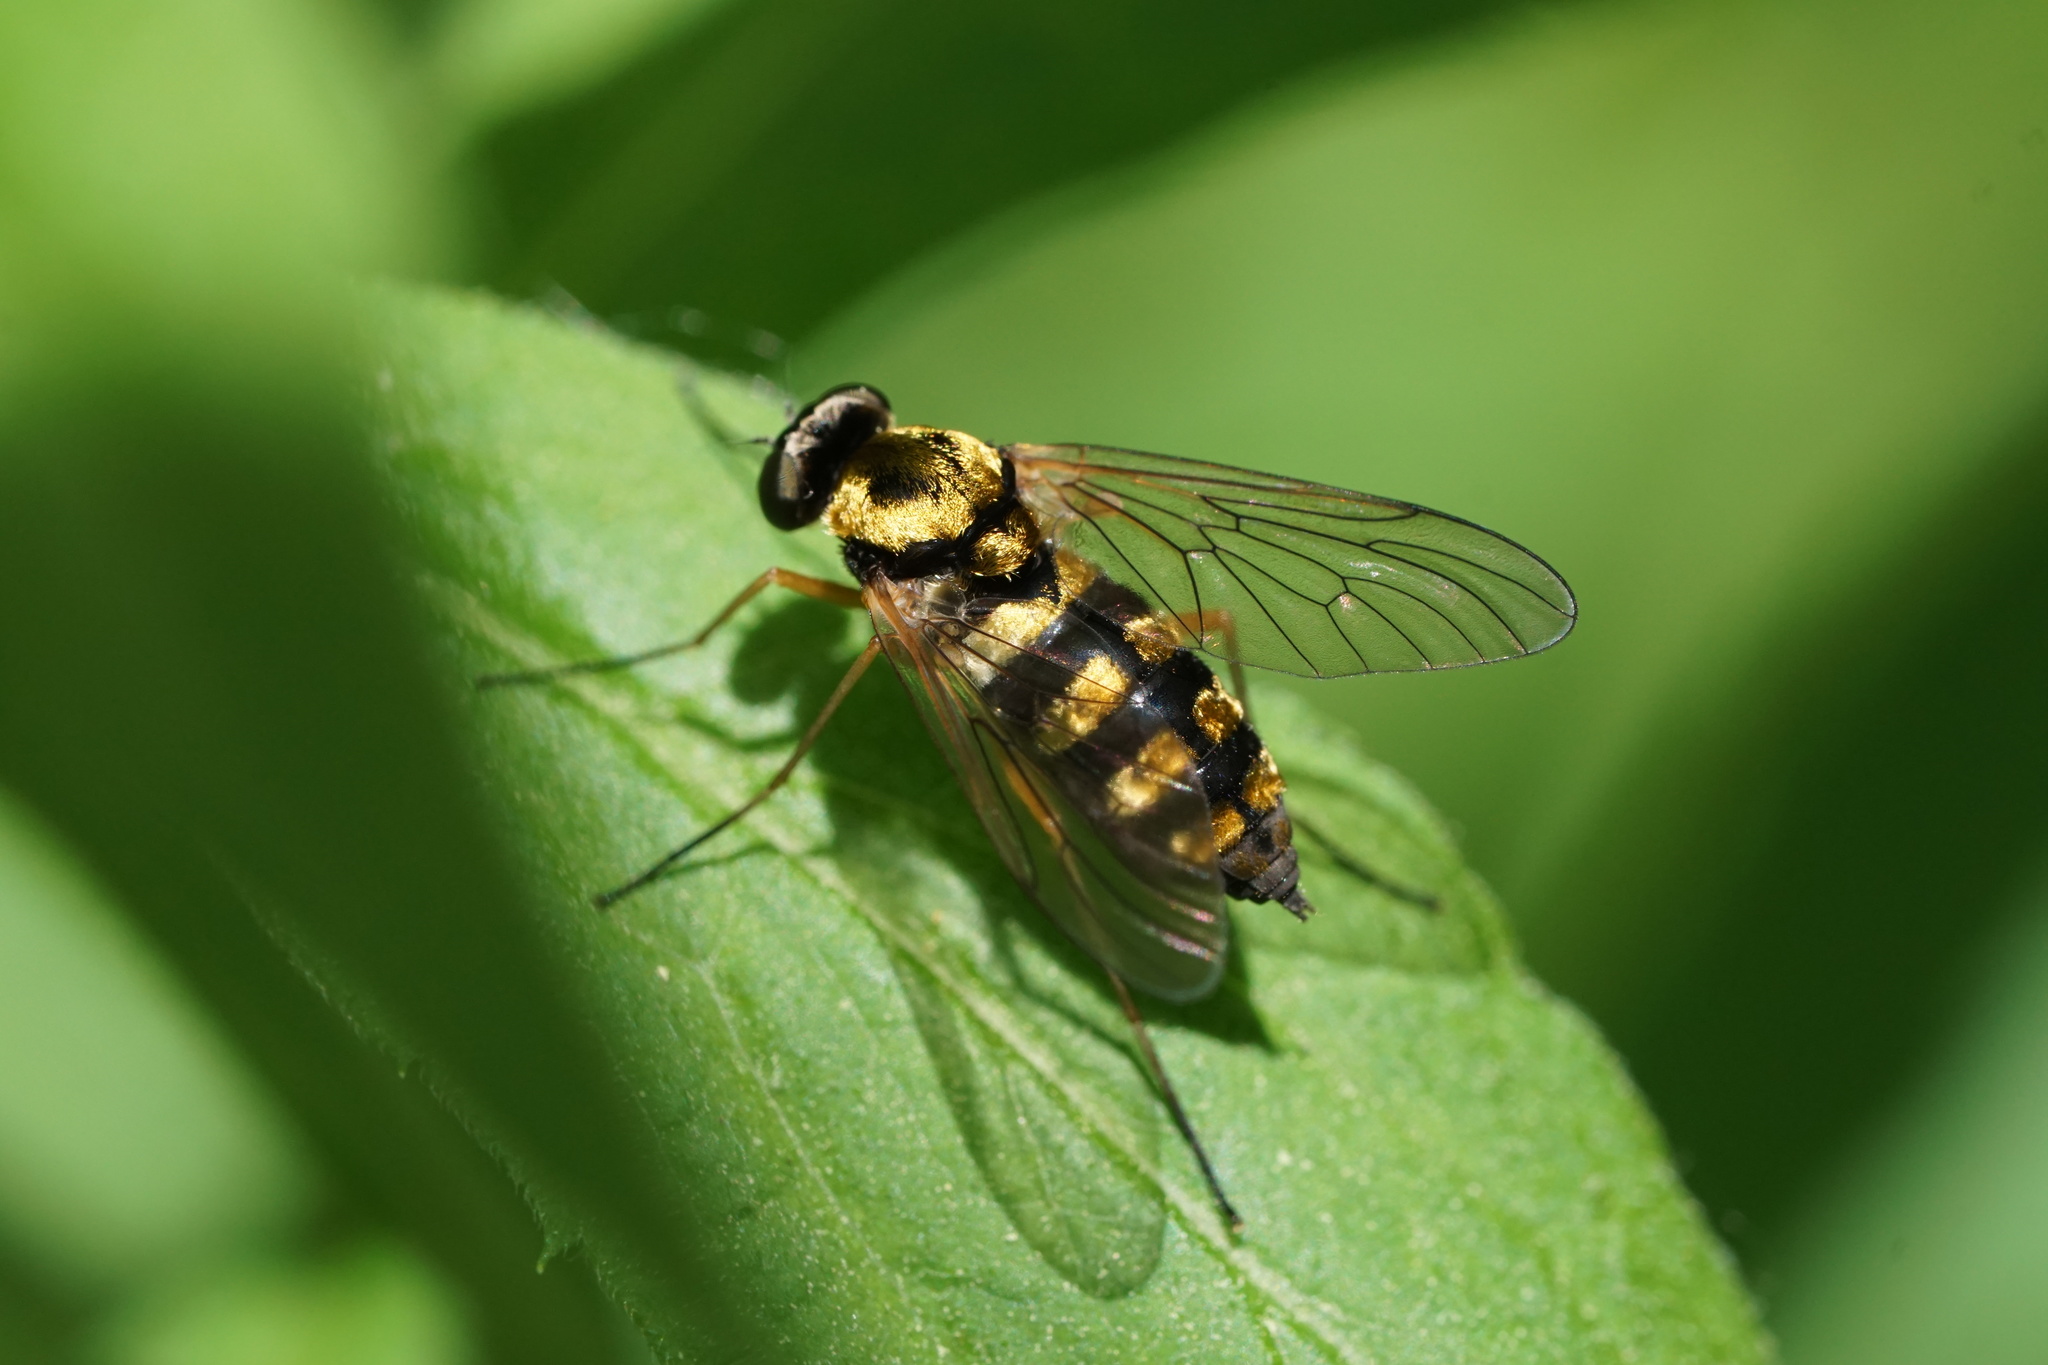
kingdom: Animalia
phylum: Arthropoda
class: Insecta
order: Diptera
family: Rhagionidae
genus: Chrysopilus
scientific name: Chrysopilus ornatus
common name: Ornate snipe fly
